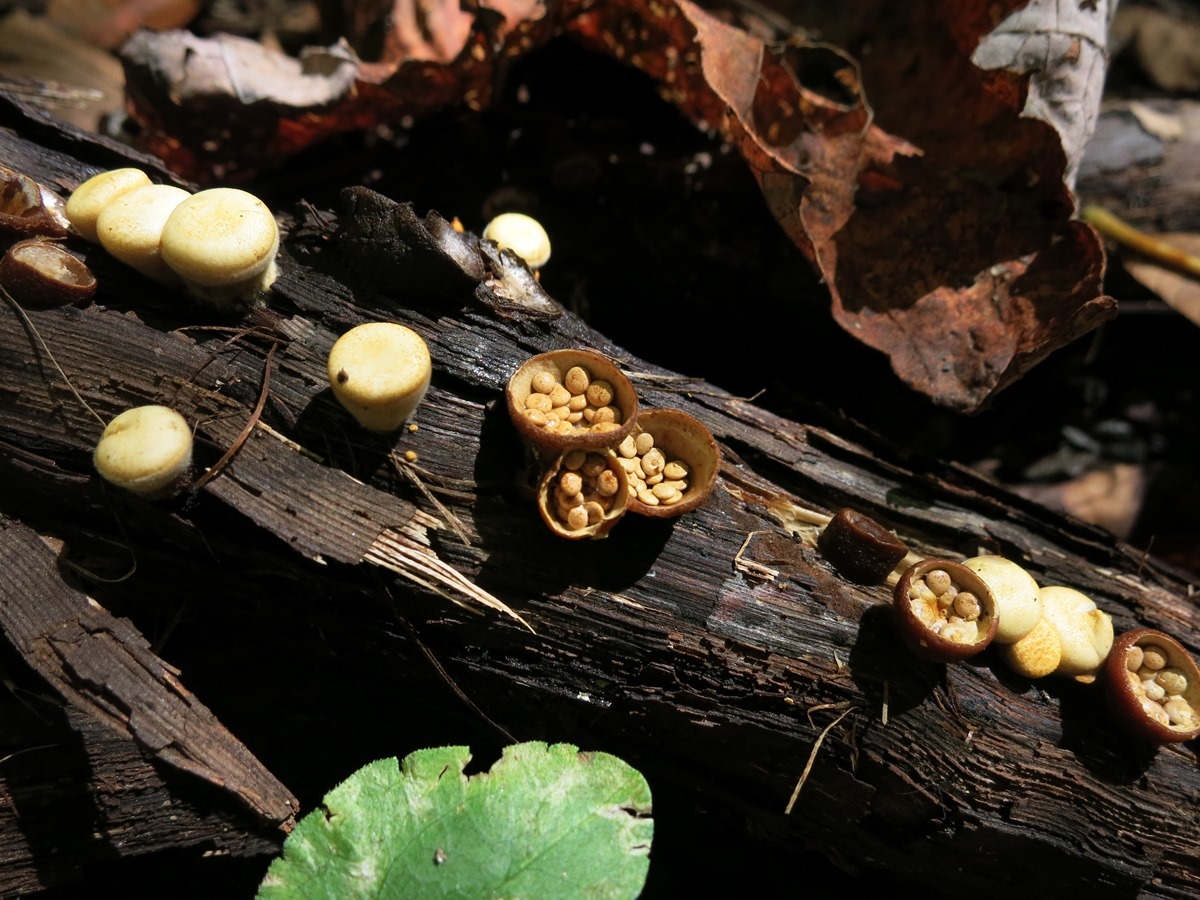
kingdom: Fungi
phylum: Basidiomycota
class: Agaricomycetes
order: Agaricales
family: Nidulariaceae
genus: Crucibulum
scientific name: Crucibulum laeve
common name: Common bird's nest
